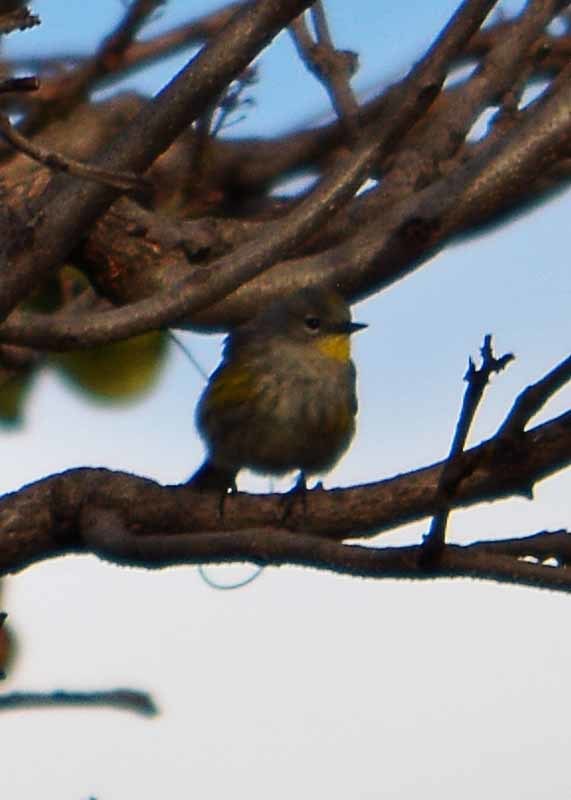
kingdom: Animalia
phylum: Chordata
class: Aves
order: Passeriformes
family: Parulidae
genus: Setophaga
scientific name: Setophaga coronata
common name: Myrtle warbler
